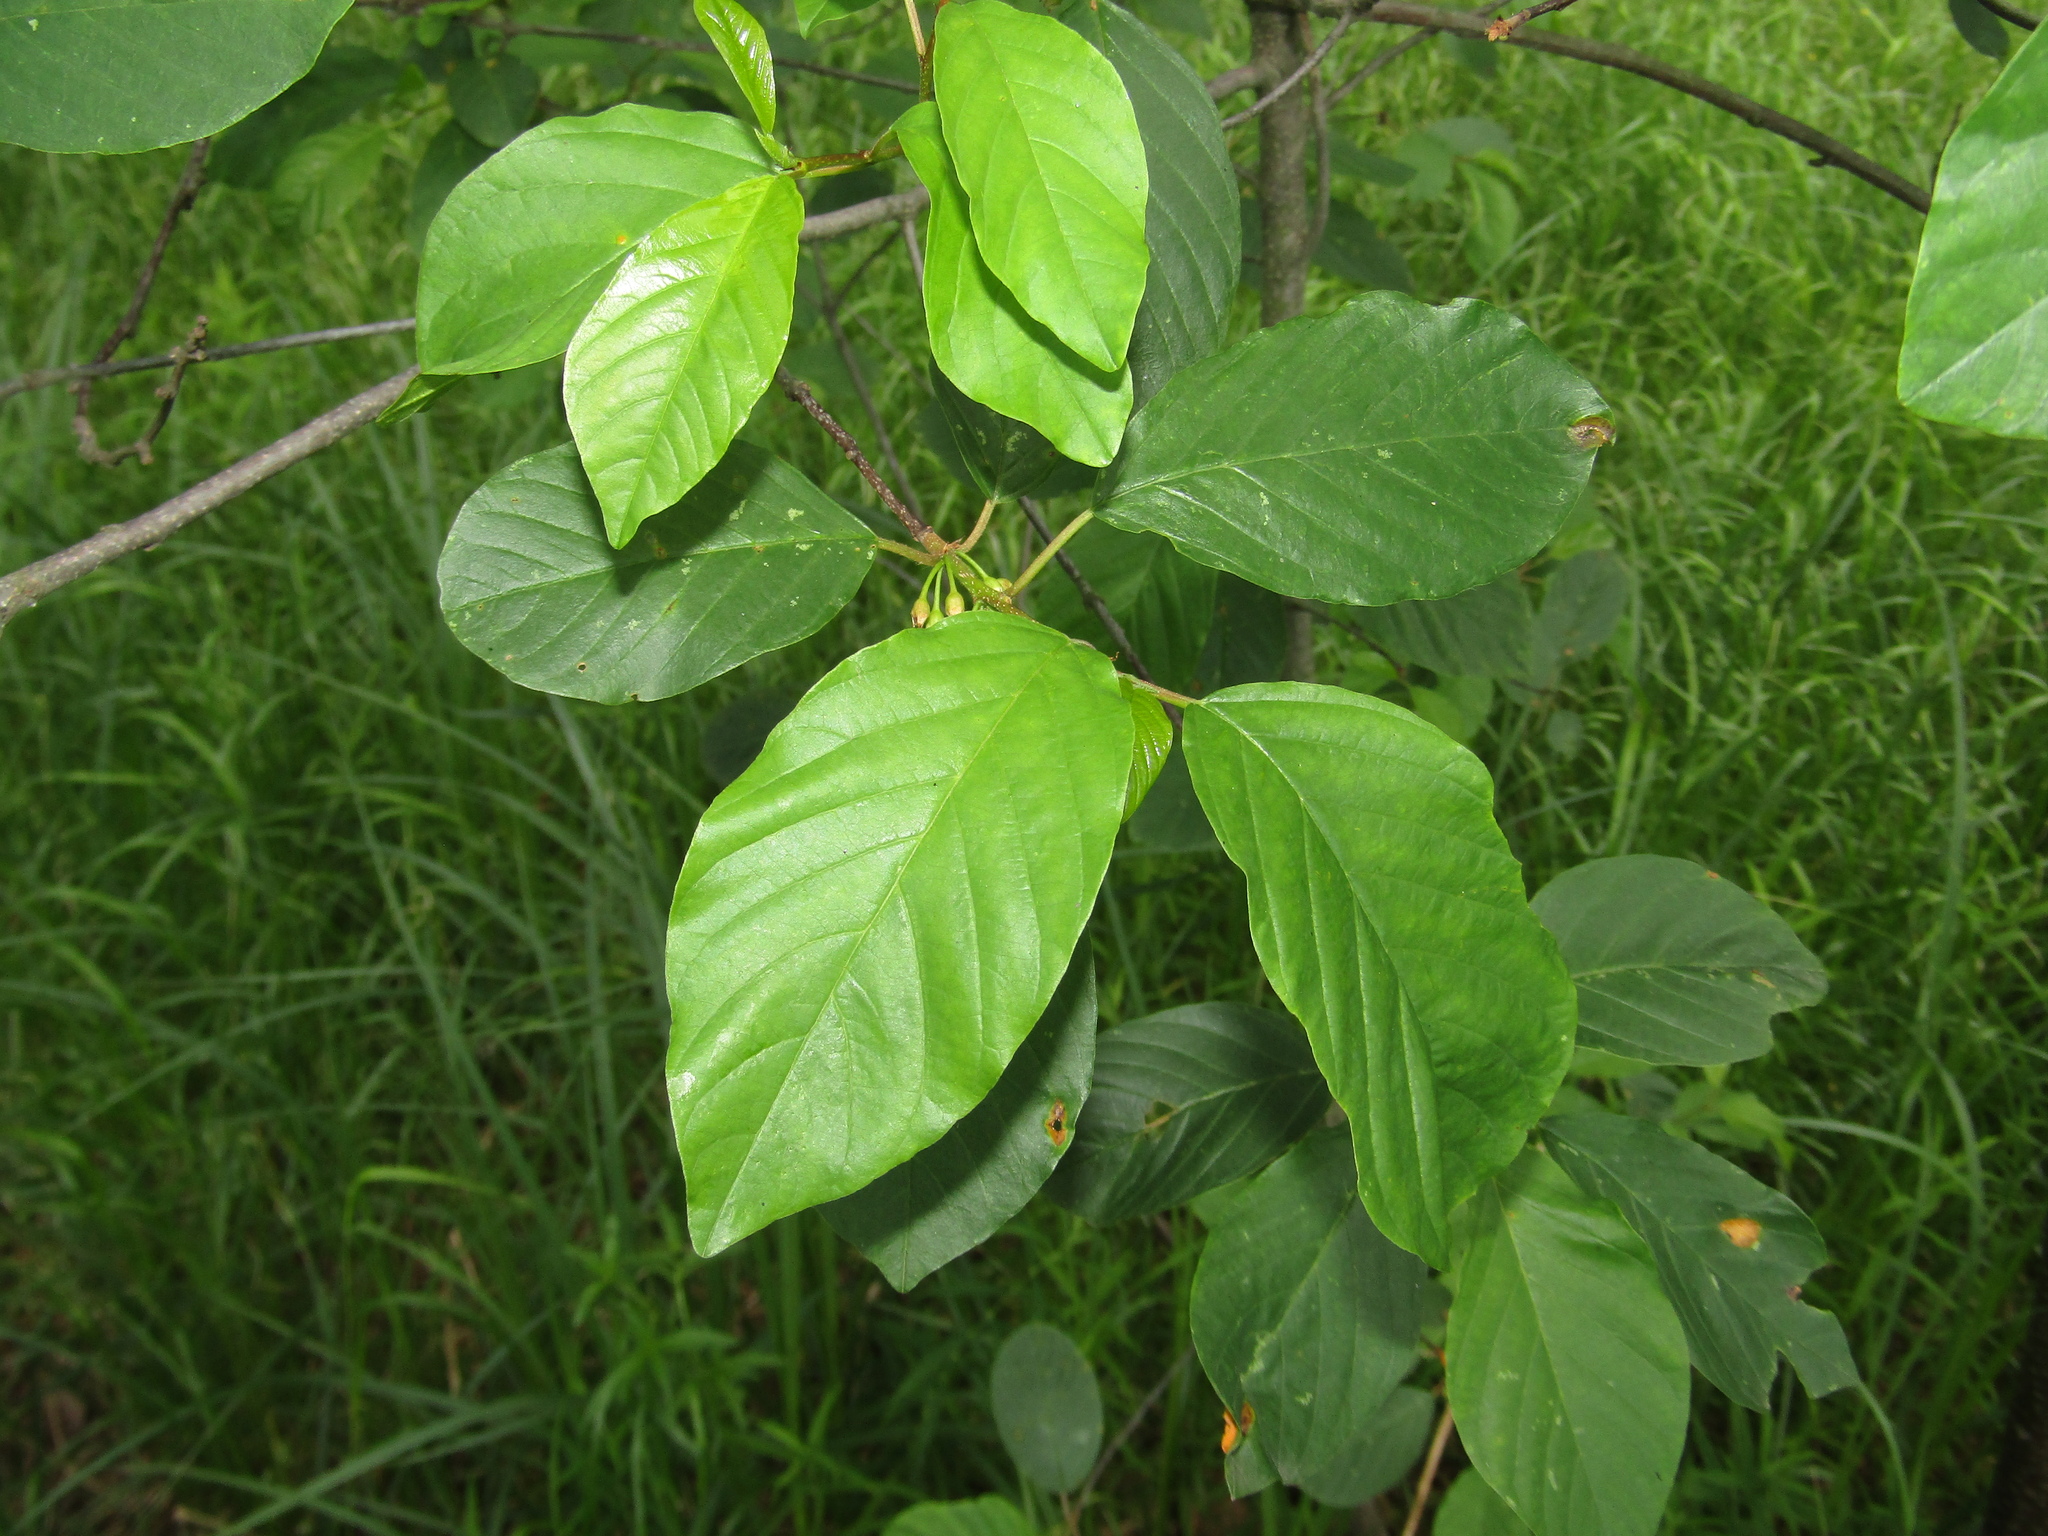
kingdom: Plantae
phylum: Tracheophyta
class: Magnoliopsida
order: Rosales
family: Rhamnaceae
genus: Frangula
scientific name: Frangula alnus
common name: Alder buckthorn
